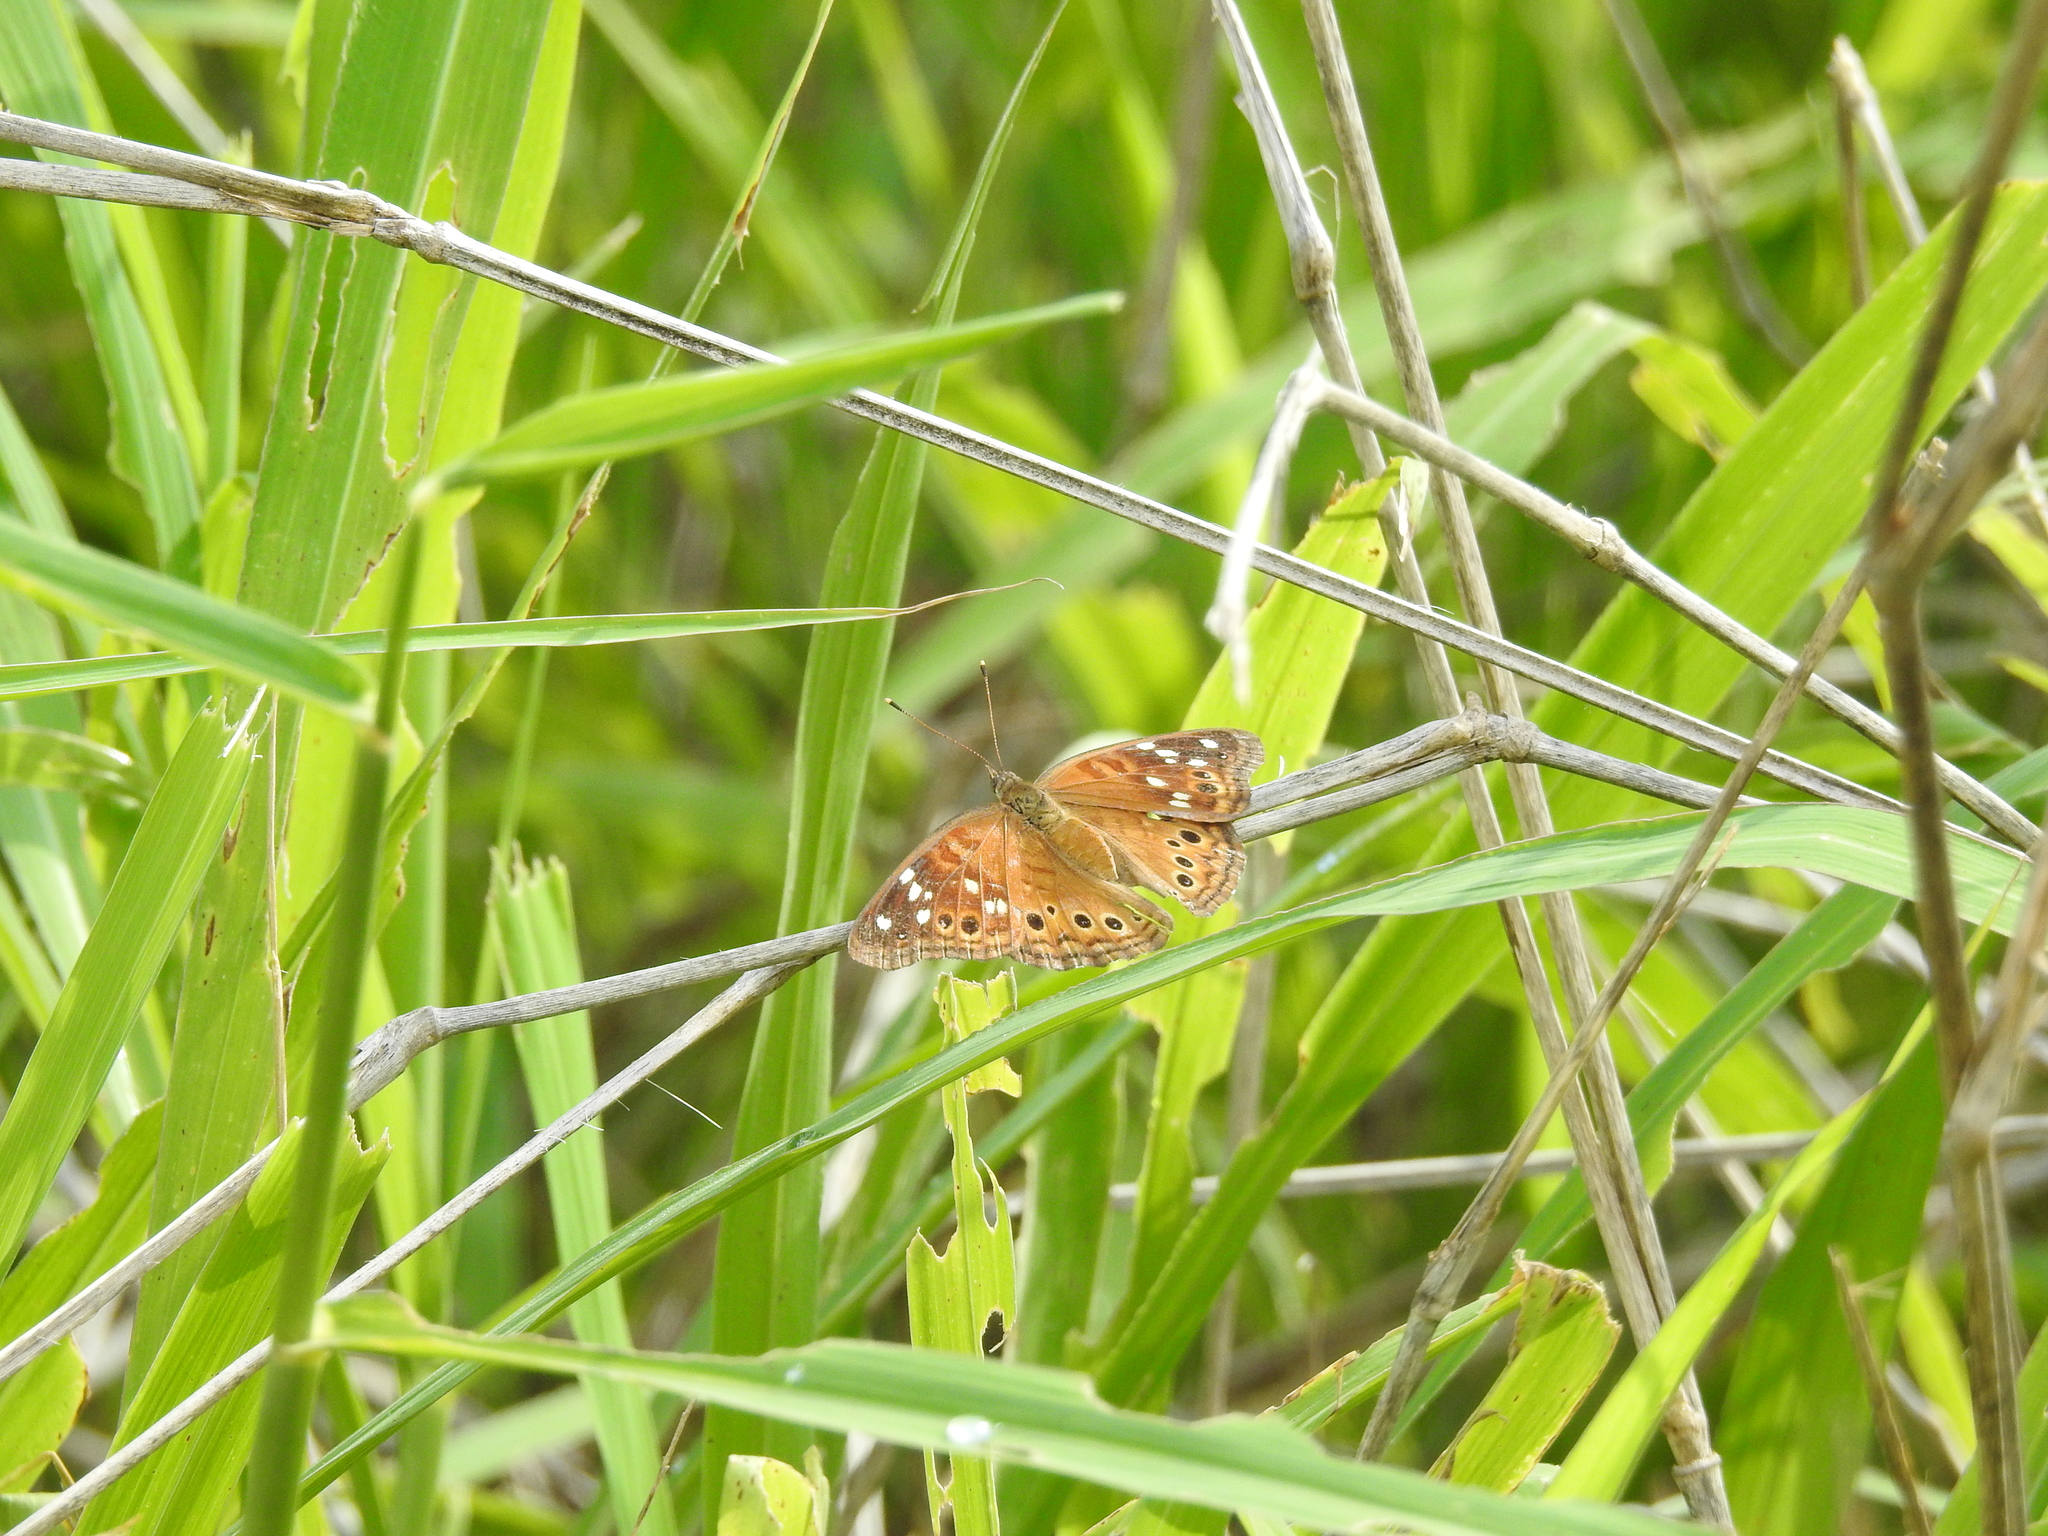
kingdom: Animalia
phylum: Arthropoda
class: Insecta
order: Lepidoptera
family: Nymphalidae
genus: Asterocampa
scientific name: Asterocampa leilia
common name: Empress leilia
